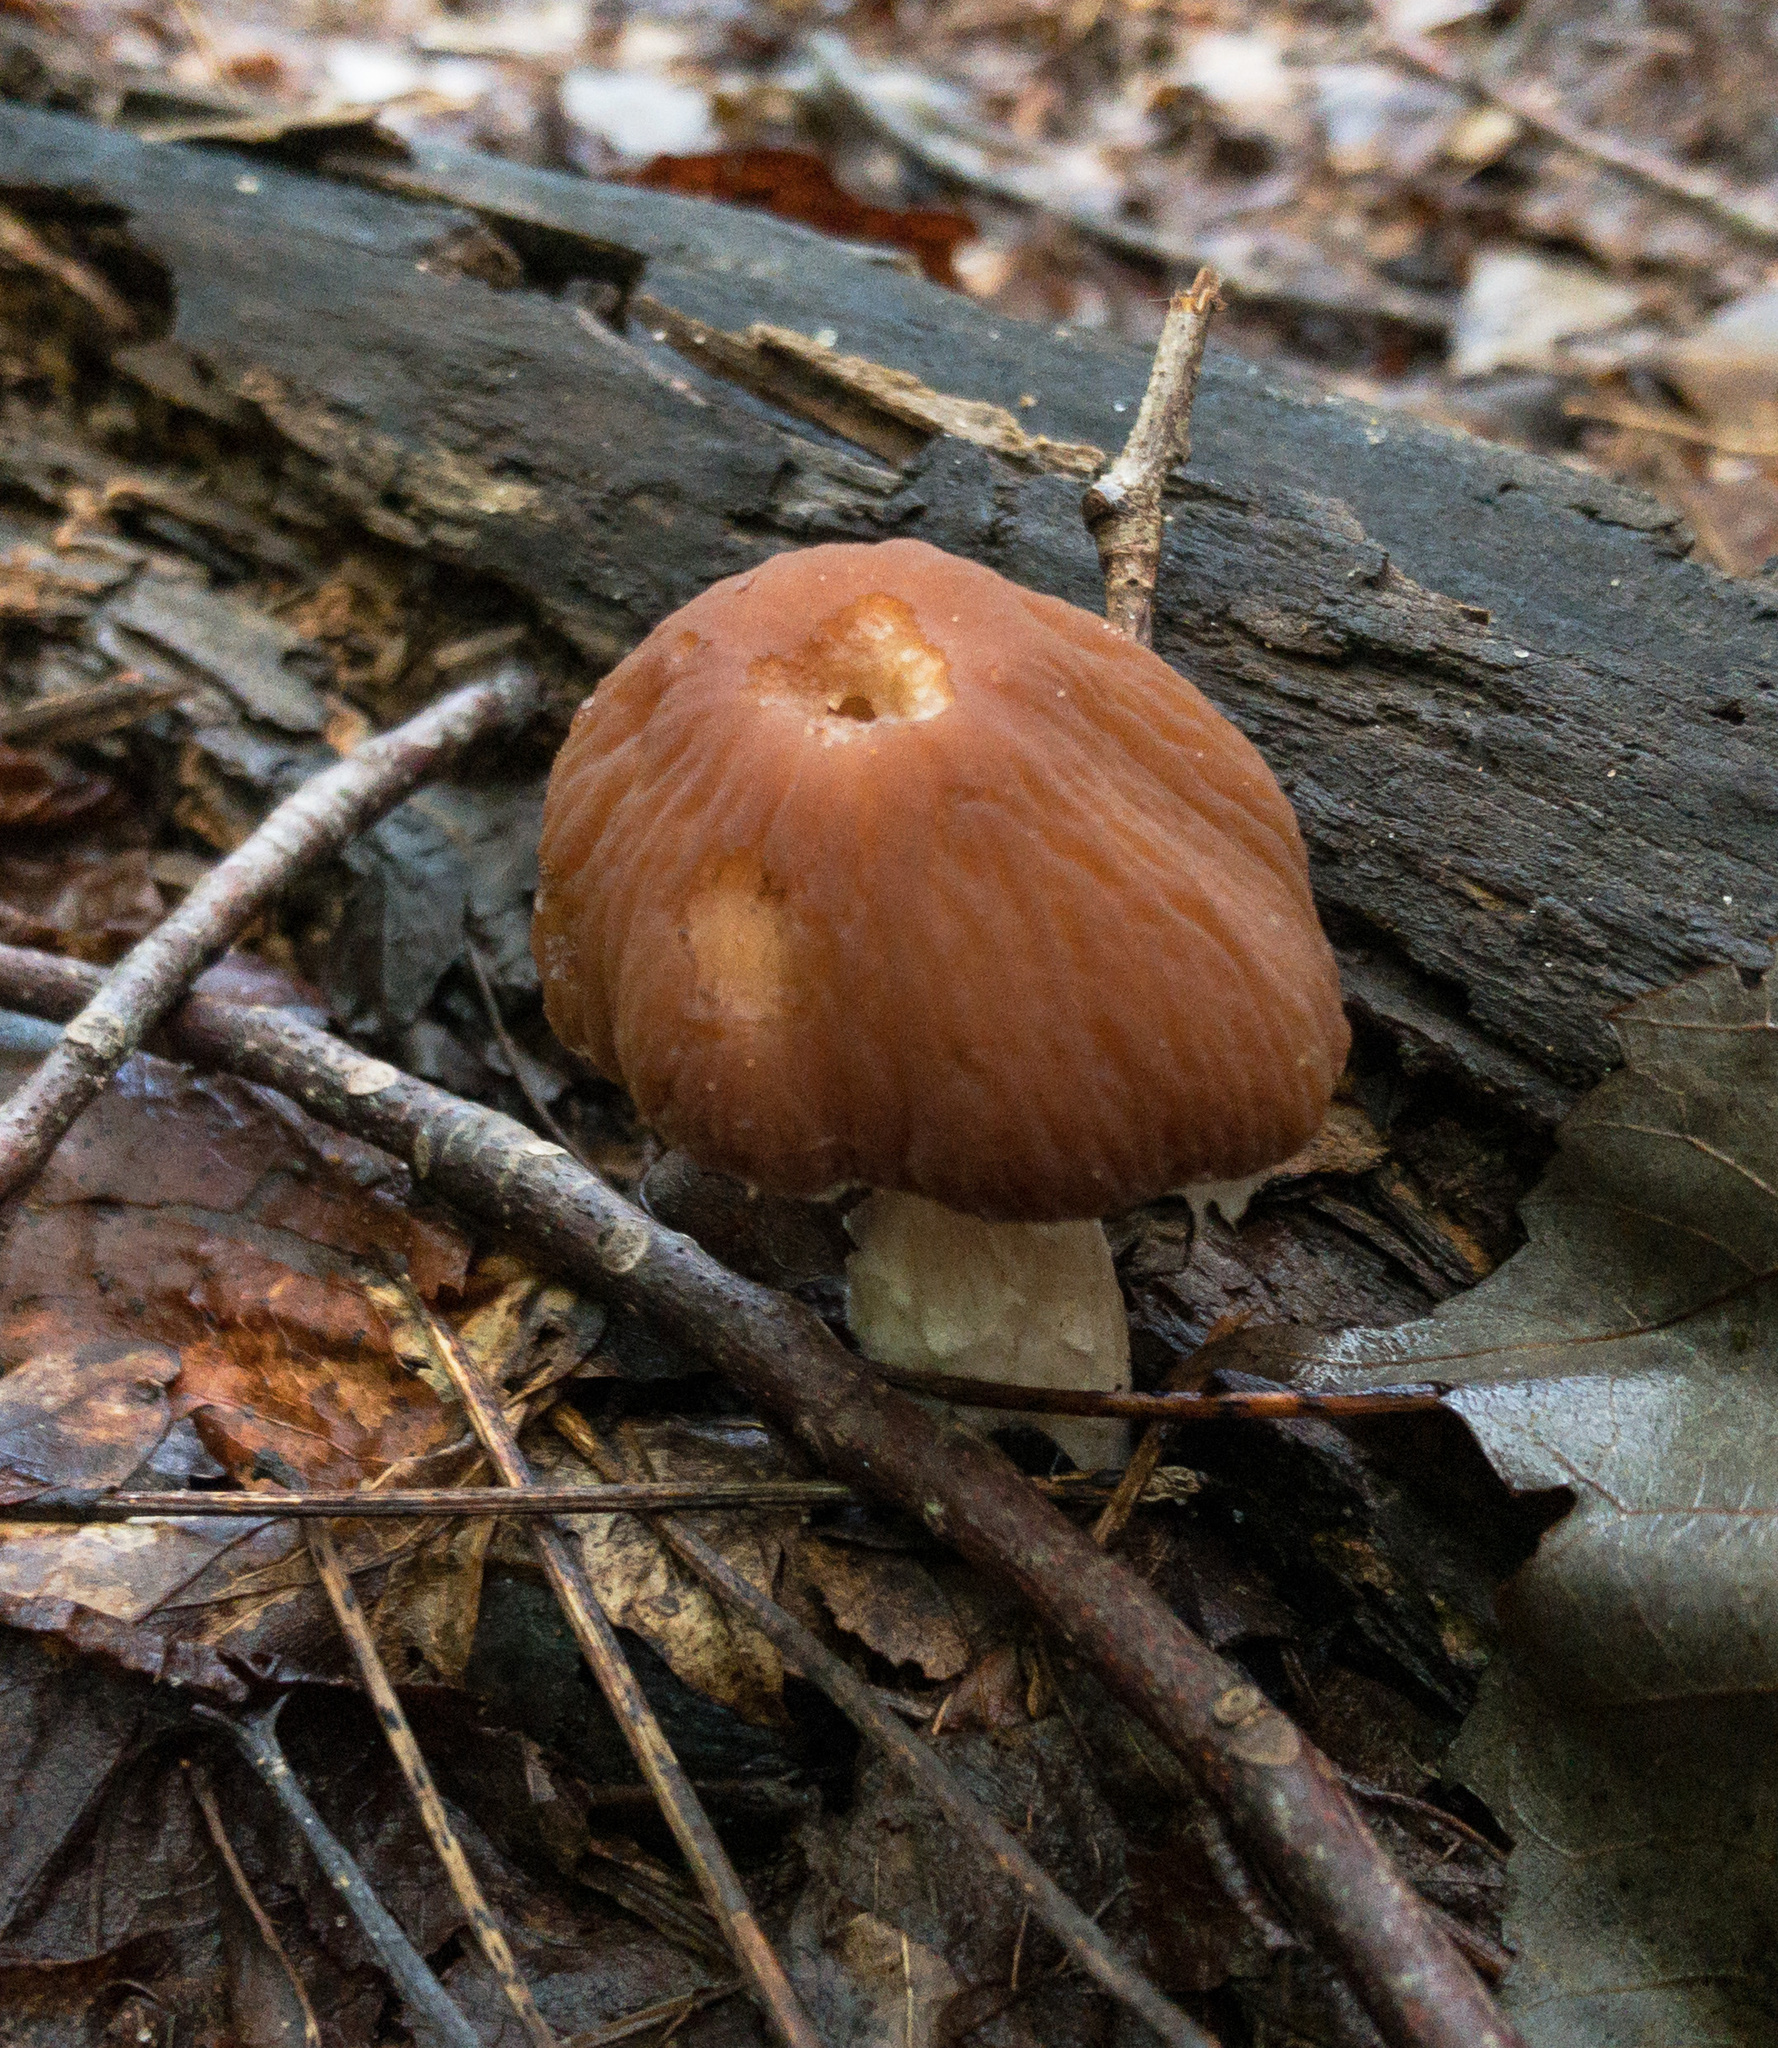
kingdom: Fungi
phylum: Basidiomycota
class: Agaricomycetes
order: Agaricales
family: Psathyrellaceae
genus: Typhrasa
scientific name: Typhrasa gossypina
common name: Wrinkled psathyrella
